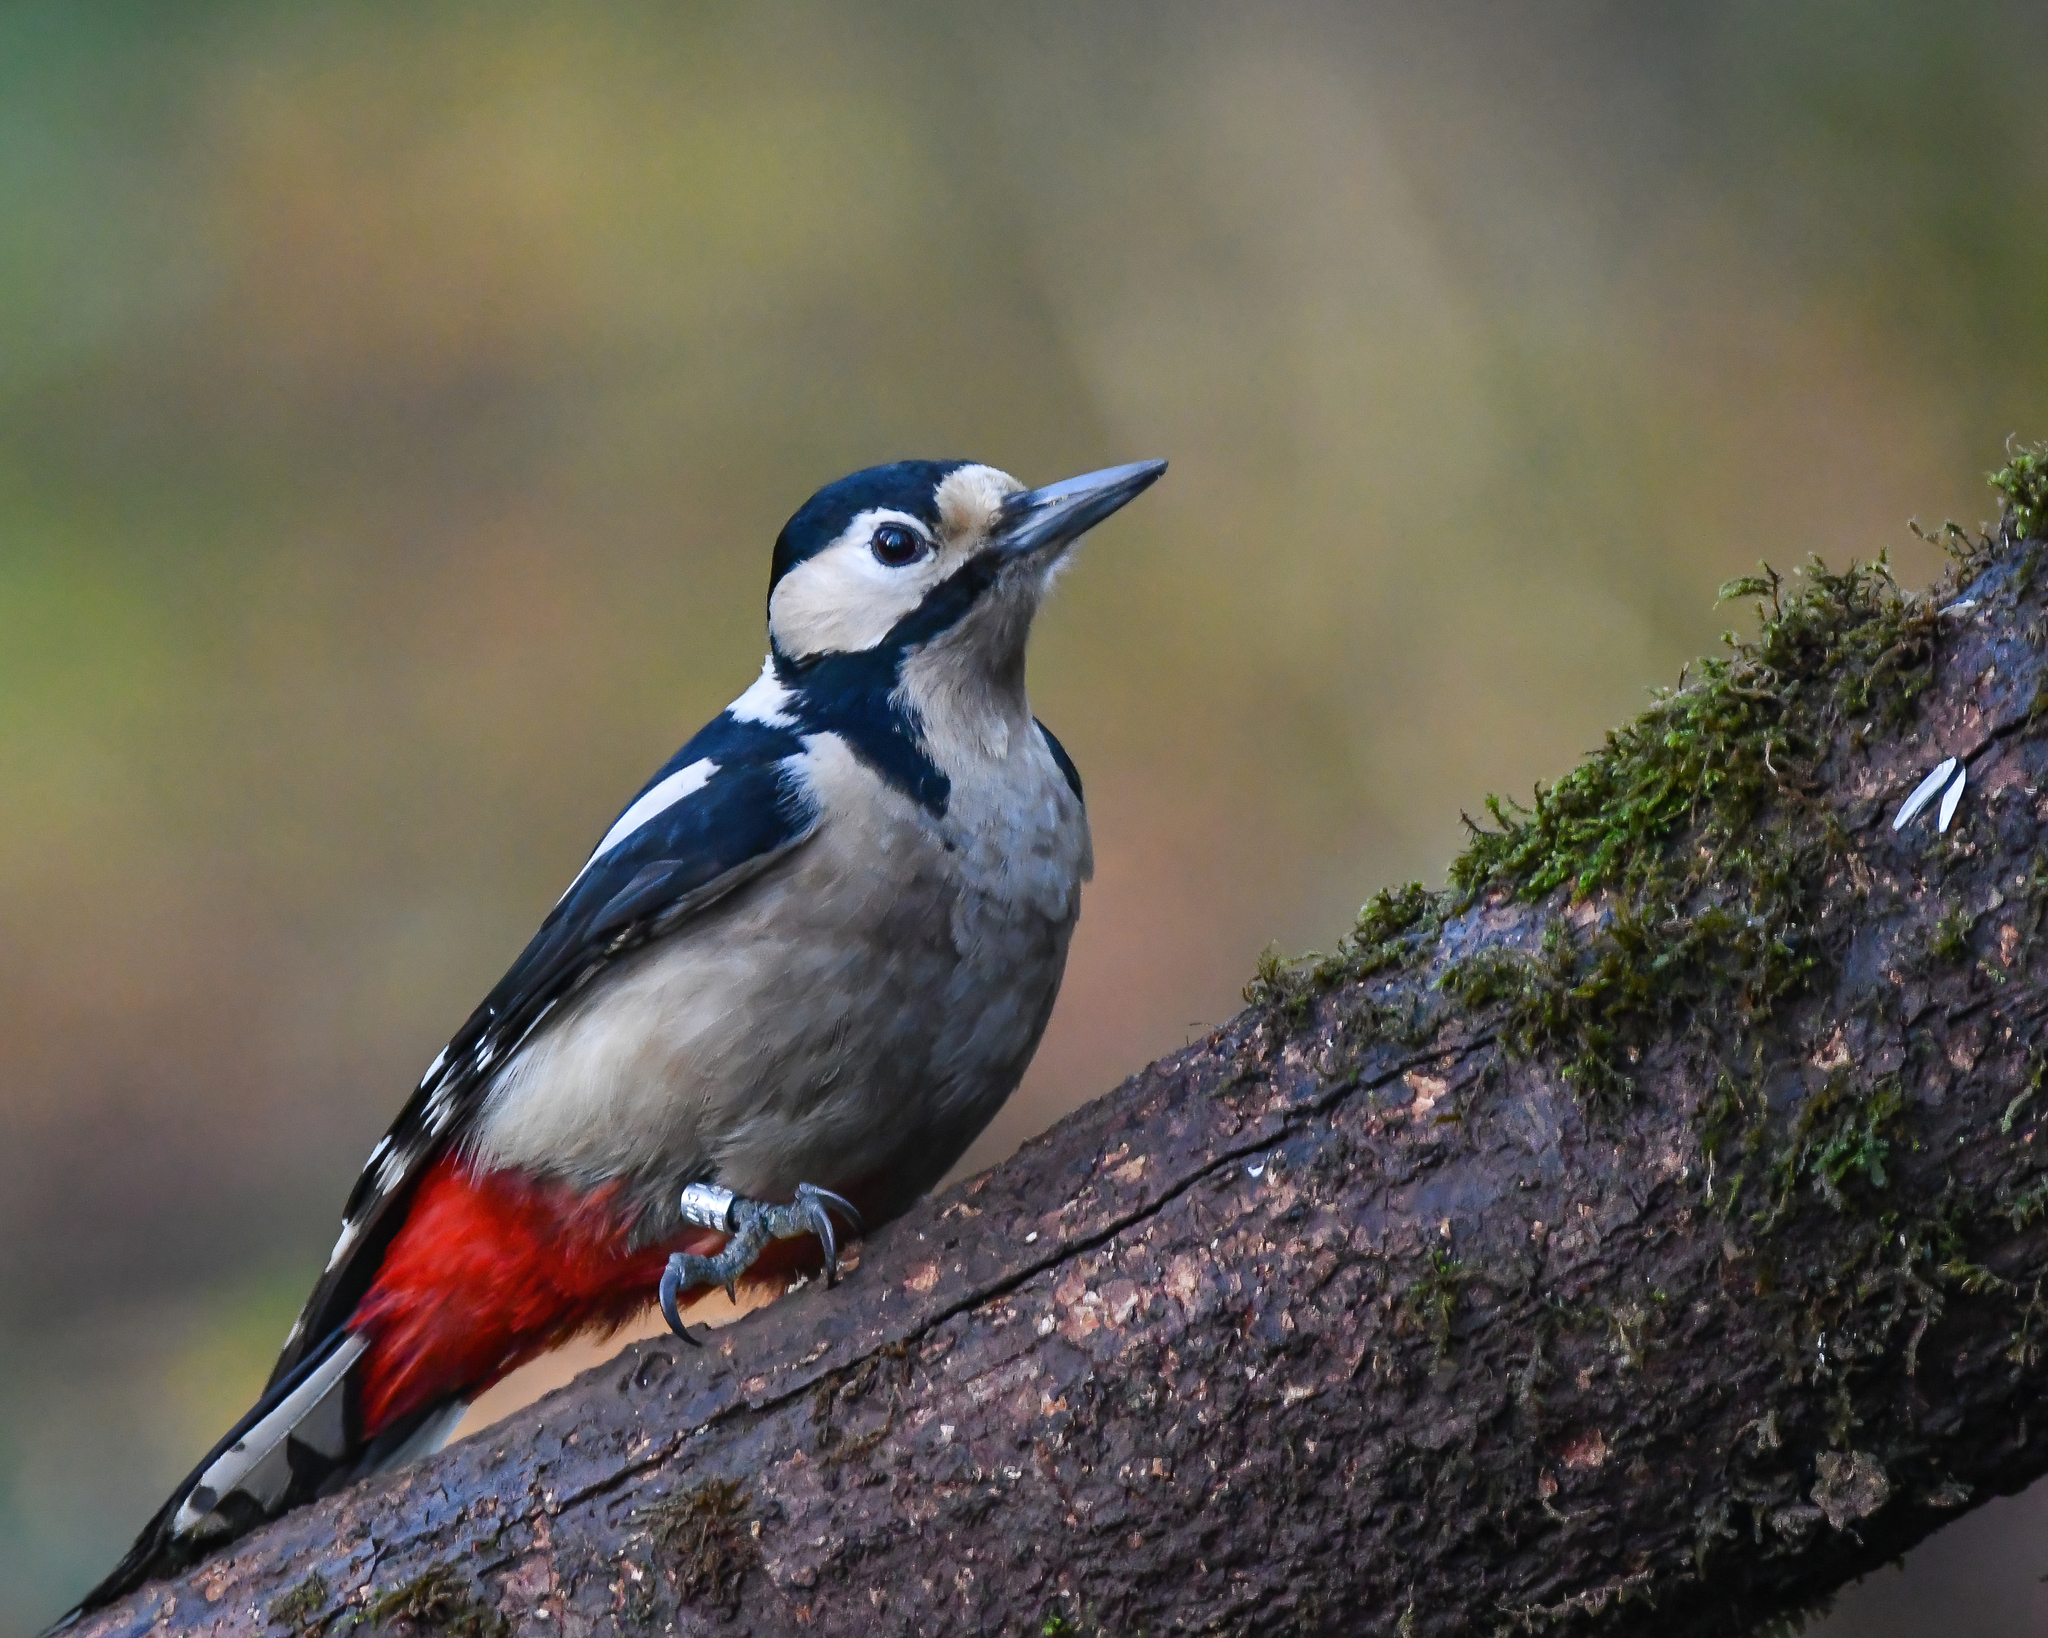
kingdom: Animalia
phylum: Chordata
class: Aves
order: Piciformes
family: Picidae
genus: Dendrocopos
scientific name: Dendrocopos major
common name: Great spotted woodpecker
